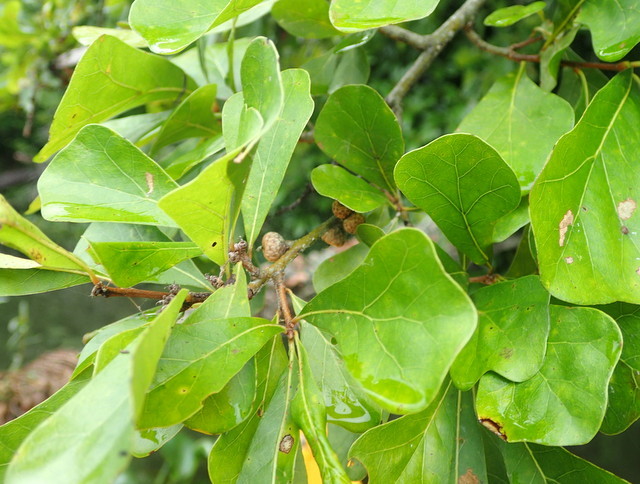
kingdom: Plantae
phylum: Tracheophyta
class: Magnoliopsida
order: Fagales
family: Fagaceae
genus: Quercus
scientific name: Quercus nigra
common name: Water oak
